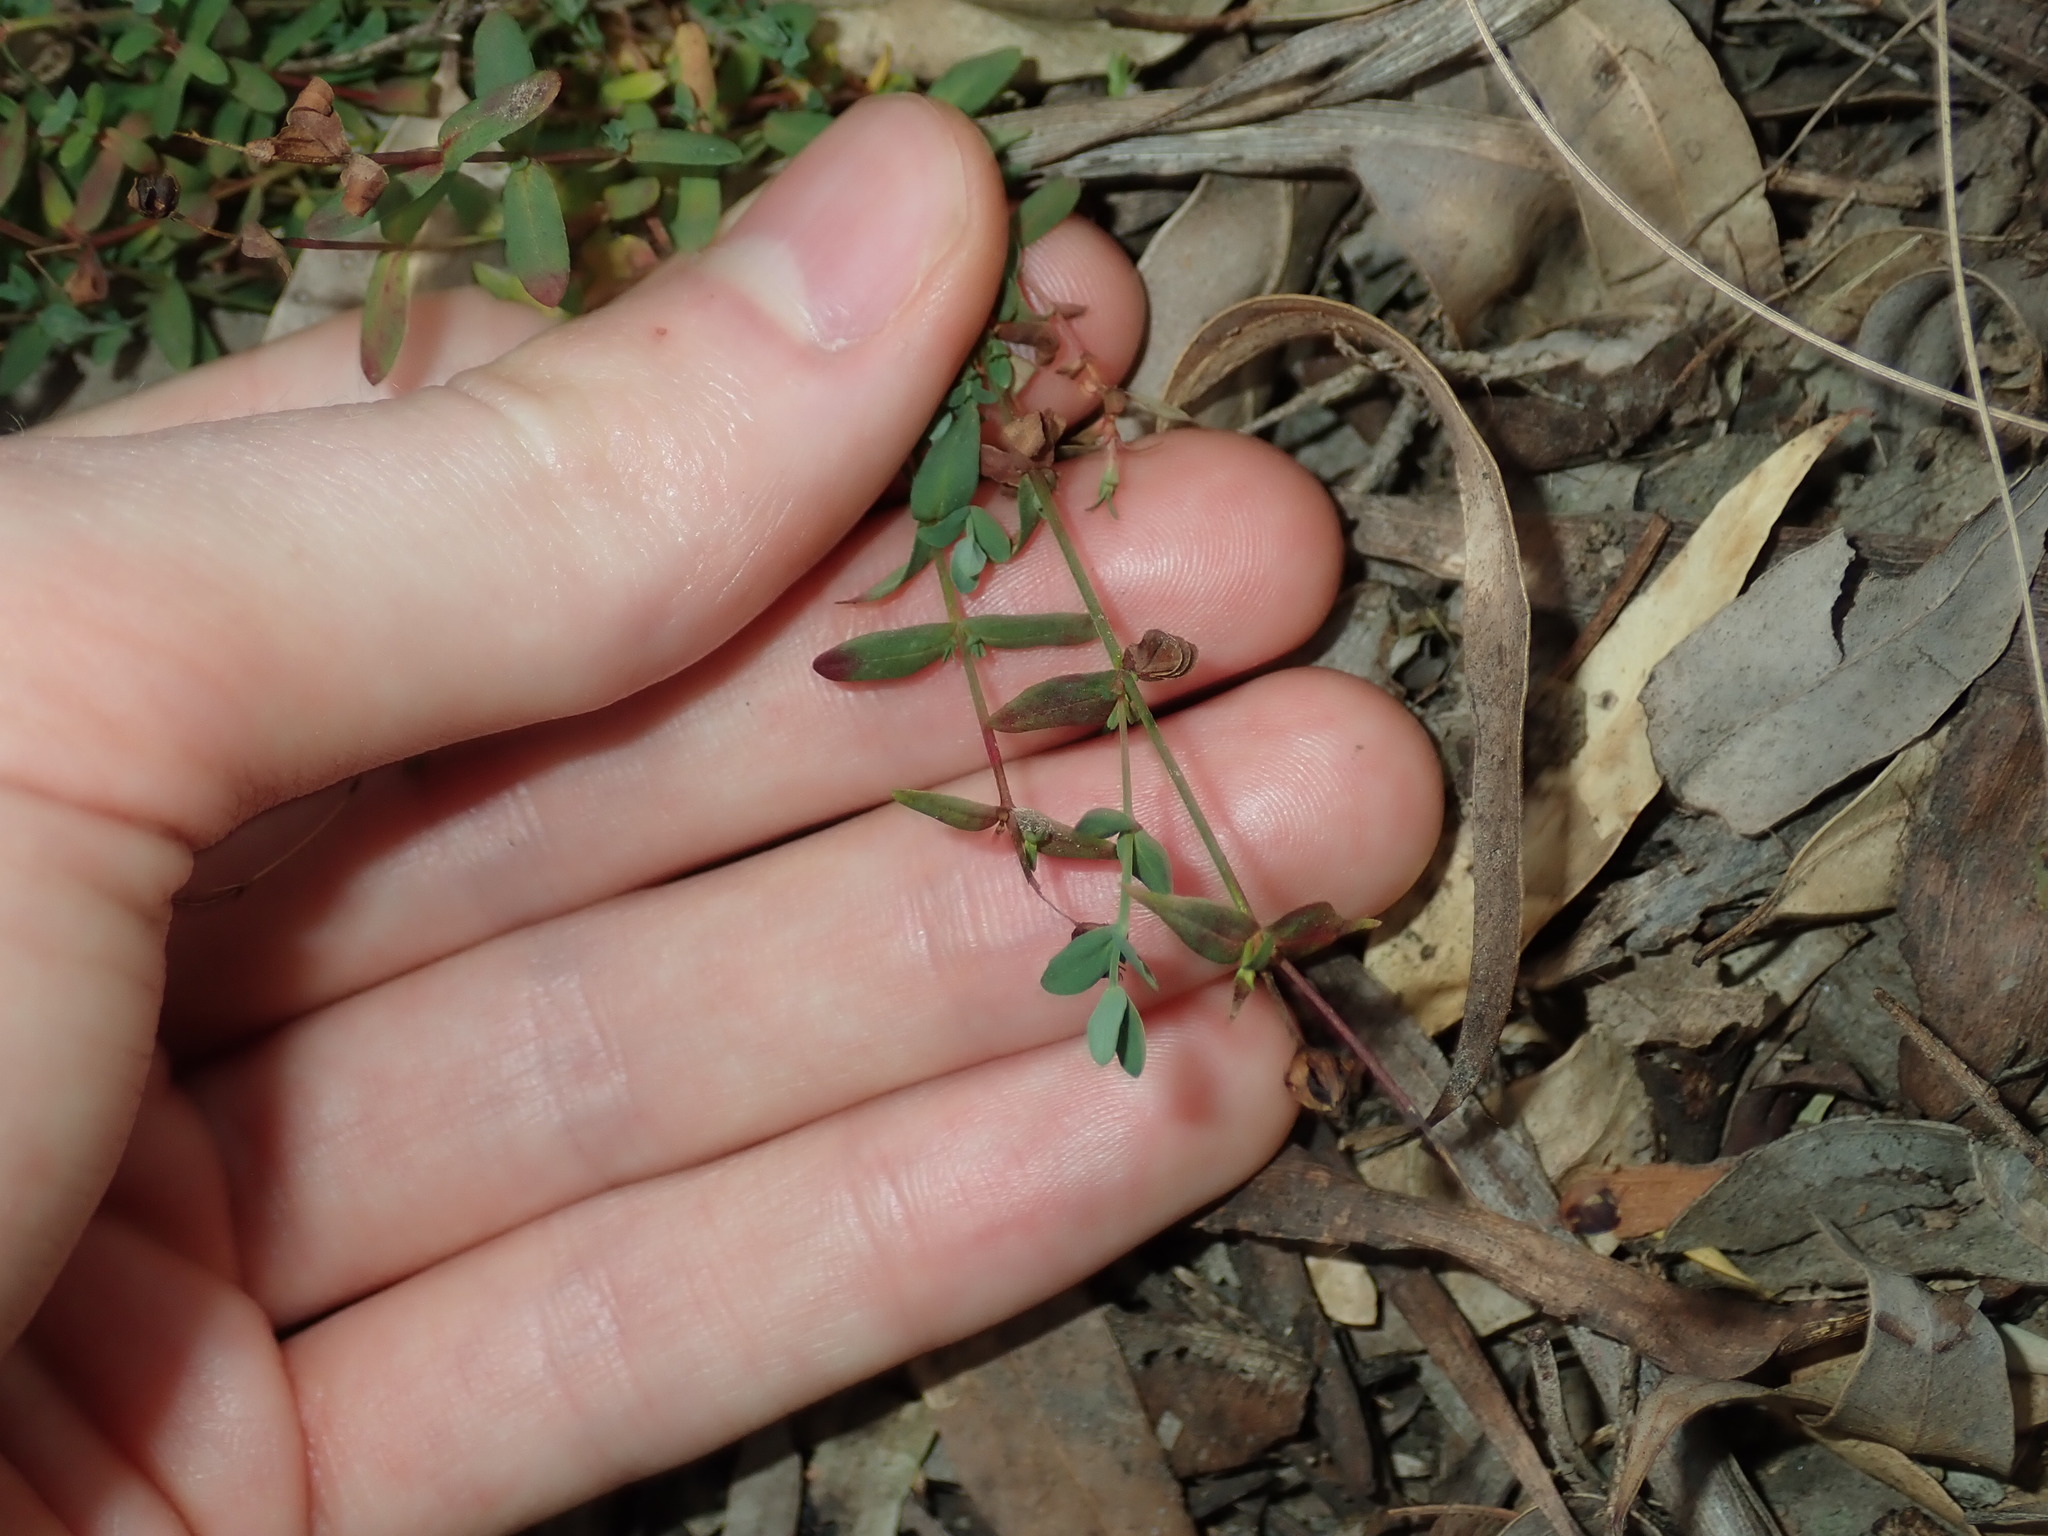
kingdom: Plantae
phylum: Tracheophyta
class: Magnoliopsida
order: Malpighiales
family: Hypericaceae
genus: Hypericum
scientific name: Hypericum gramineum
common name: Grassy st. johnswort
